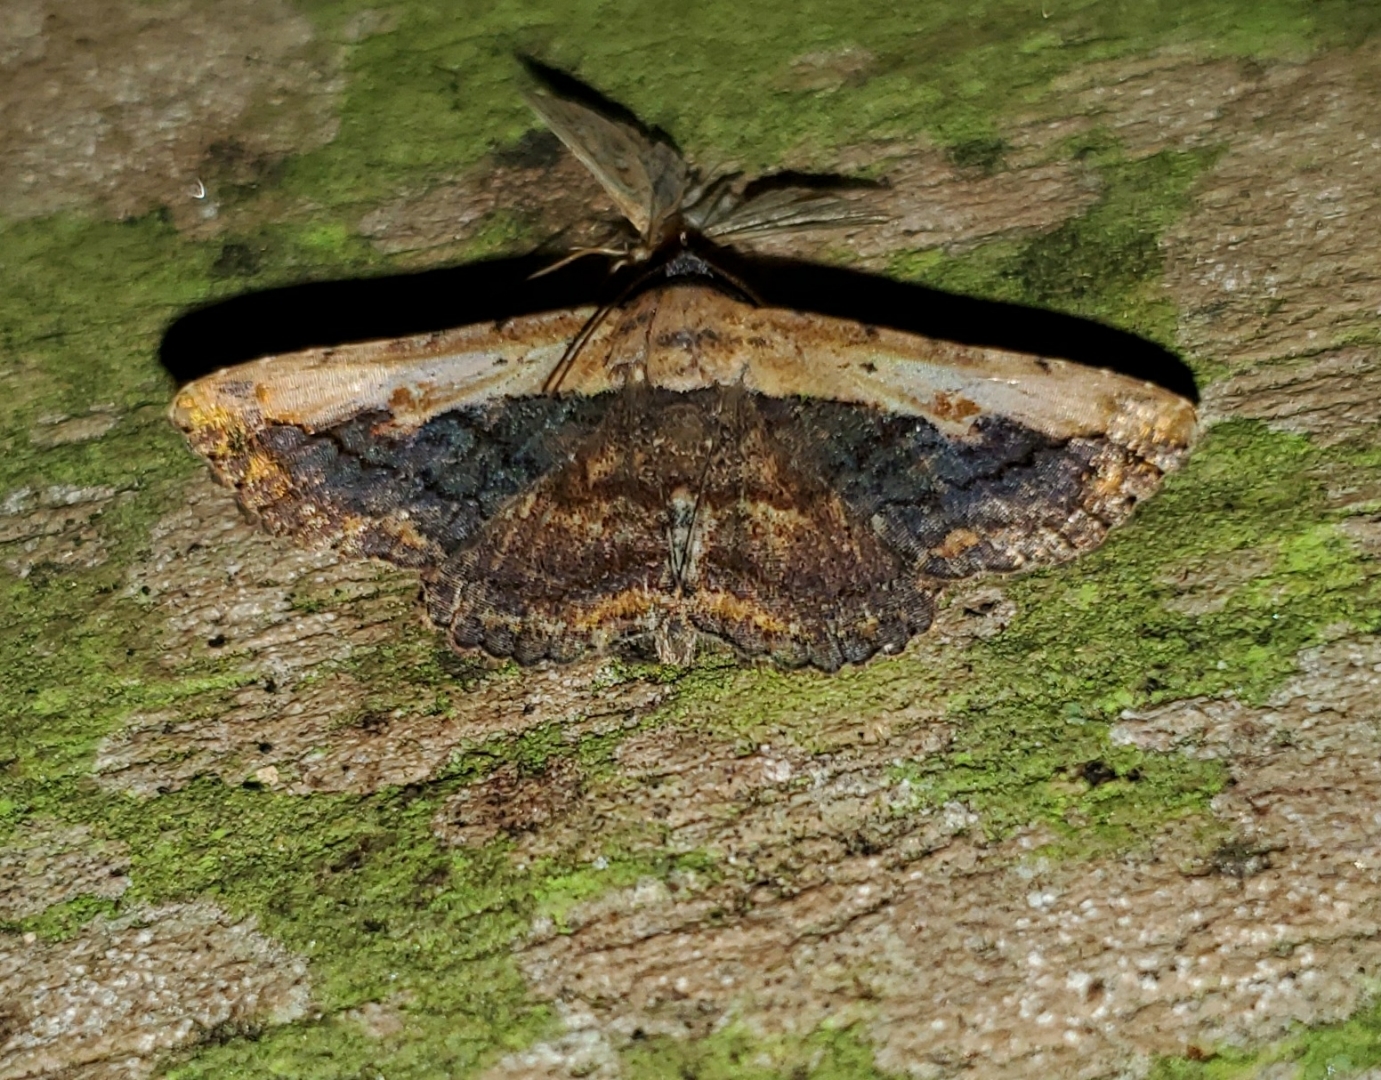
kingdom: Animalia
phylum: Arthropoda
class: Insecta
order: Lepidoptera
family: Erebidae
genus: Selenisa
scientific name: Selenisa sueroides
